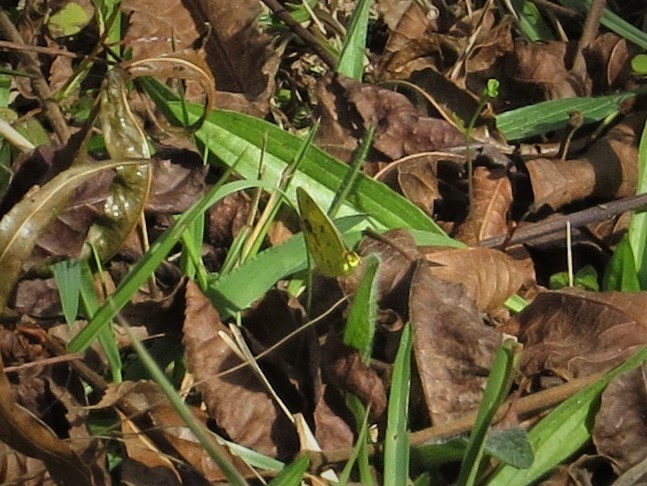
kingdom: Animalia
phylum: Arthropoda
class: Insecta
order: Lepidoptera
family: Pieridae
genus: Pyrisitia
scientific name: Pyrisitia lisa
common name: Little yellow
